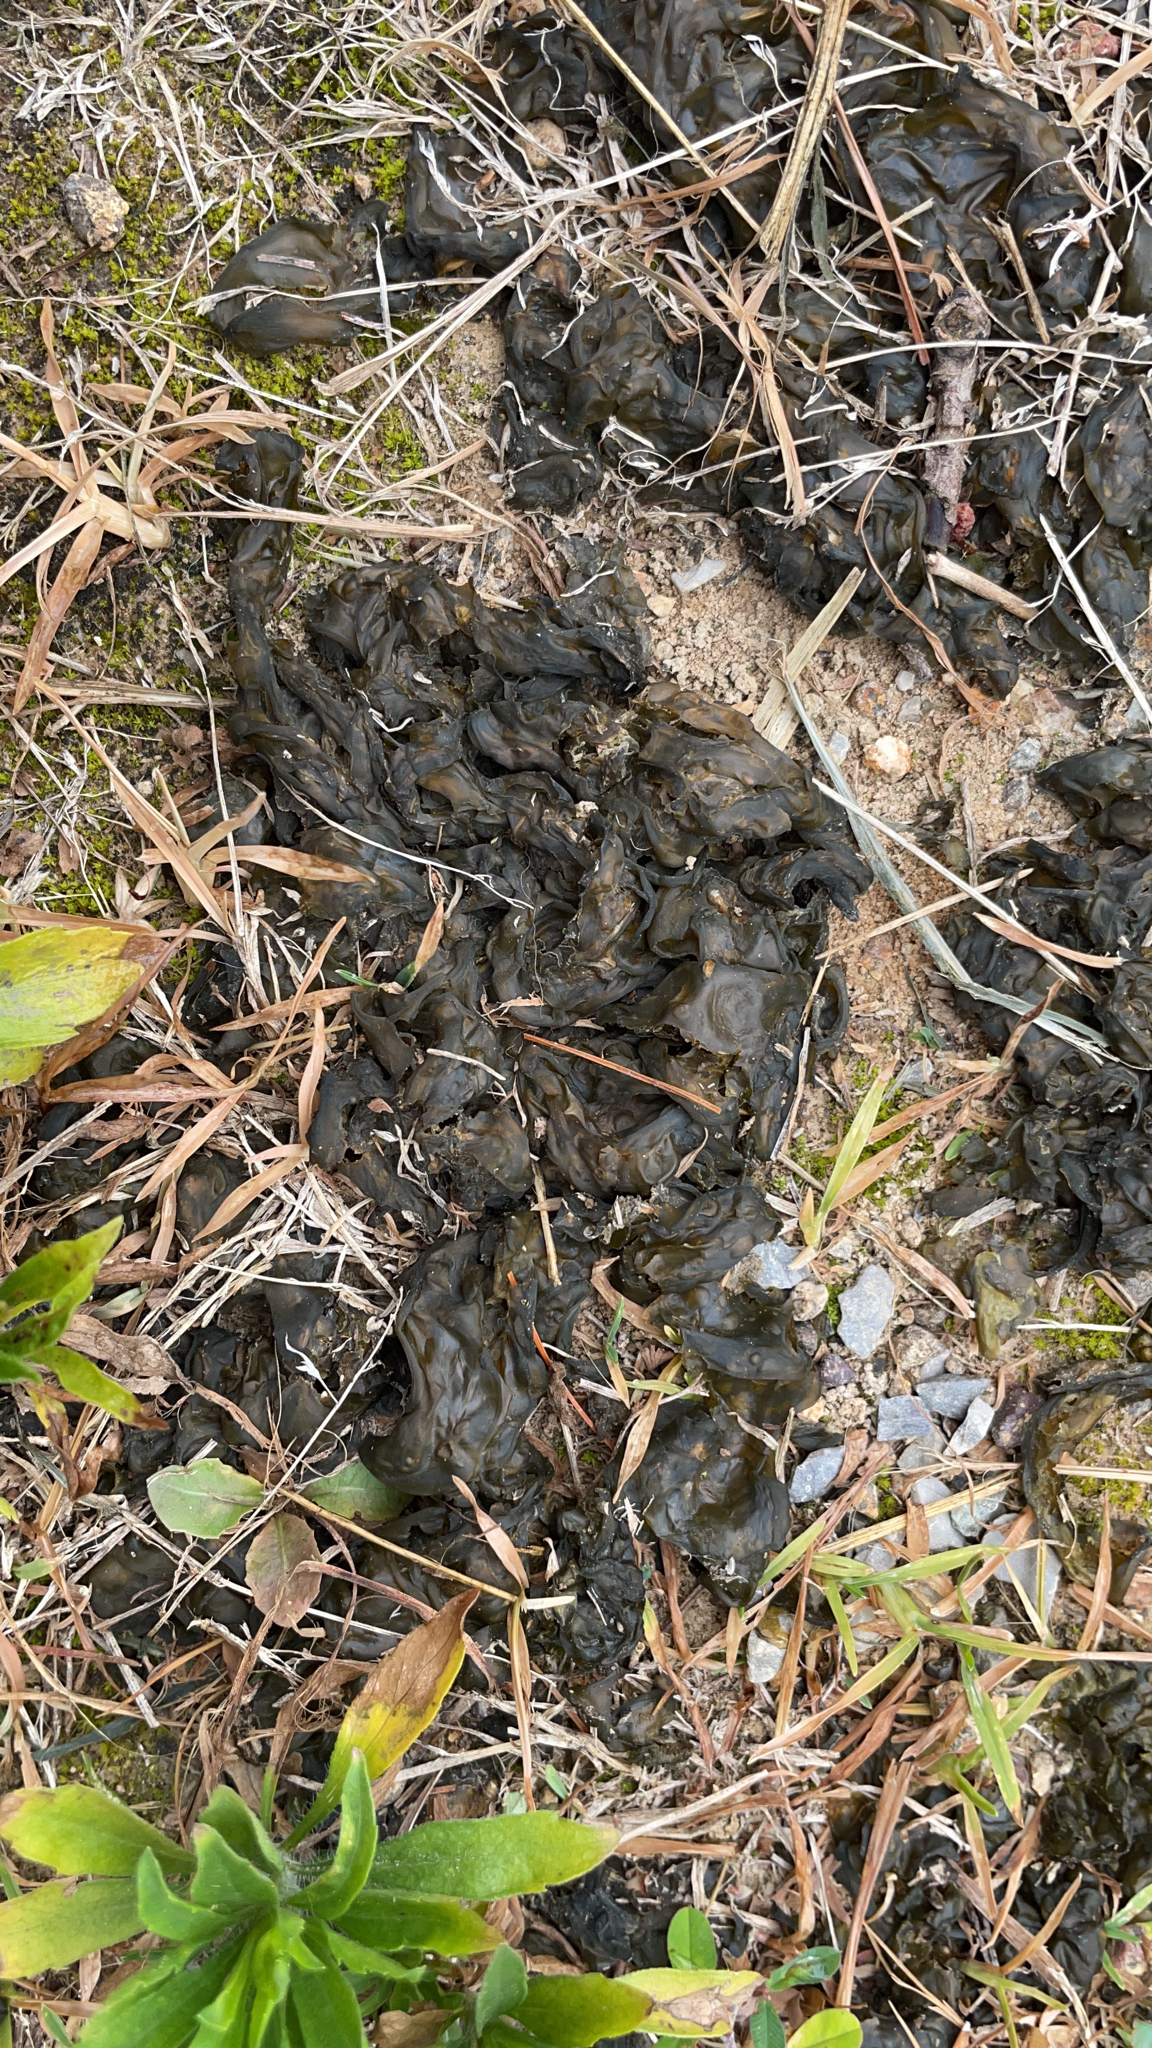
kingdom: Bacteria
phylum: Cyanobacteria
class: Cyanobacteriia
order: Cyanobacteriales
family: Nostocaceae
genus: Nostoc
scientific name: Nostoc commune
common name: Star jelly
